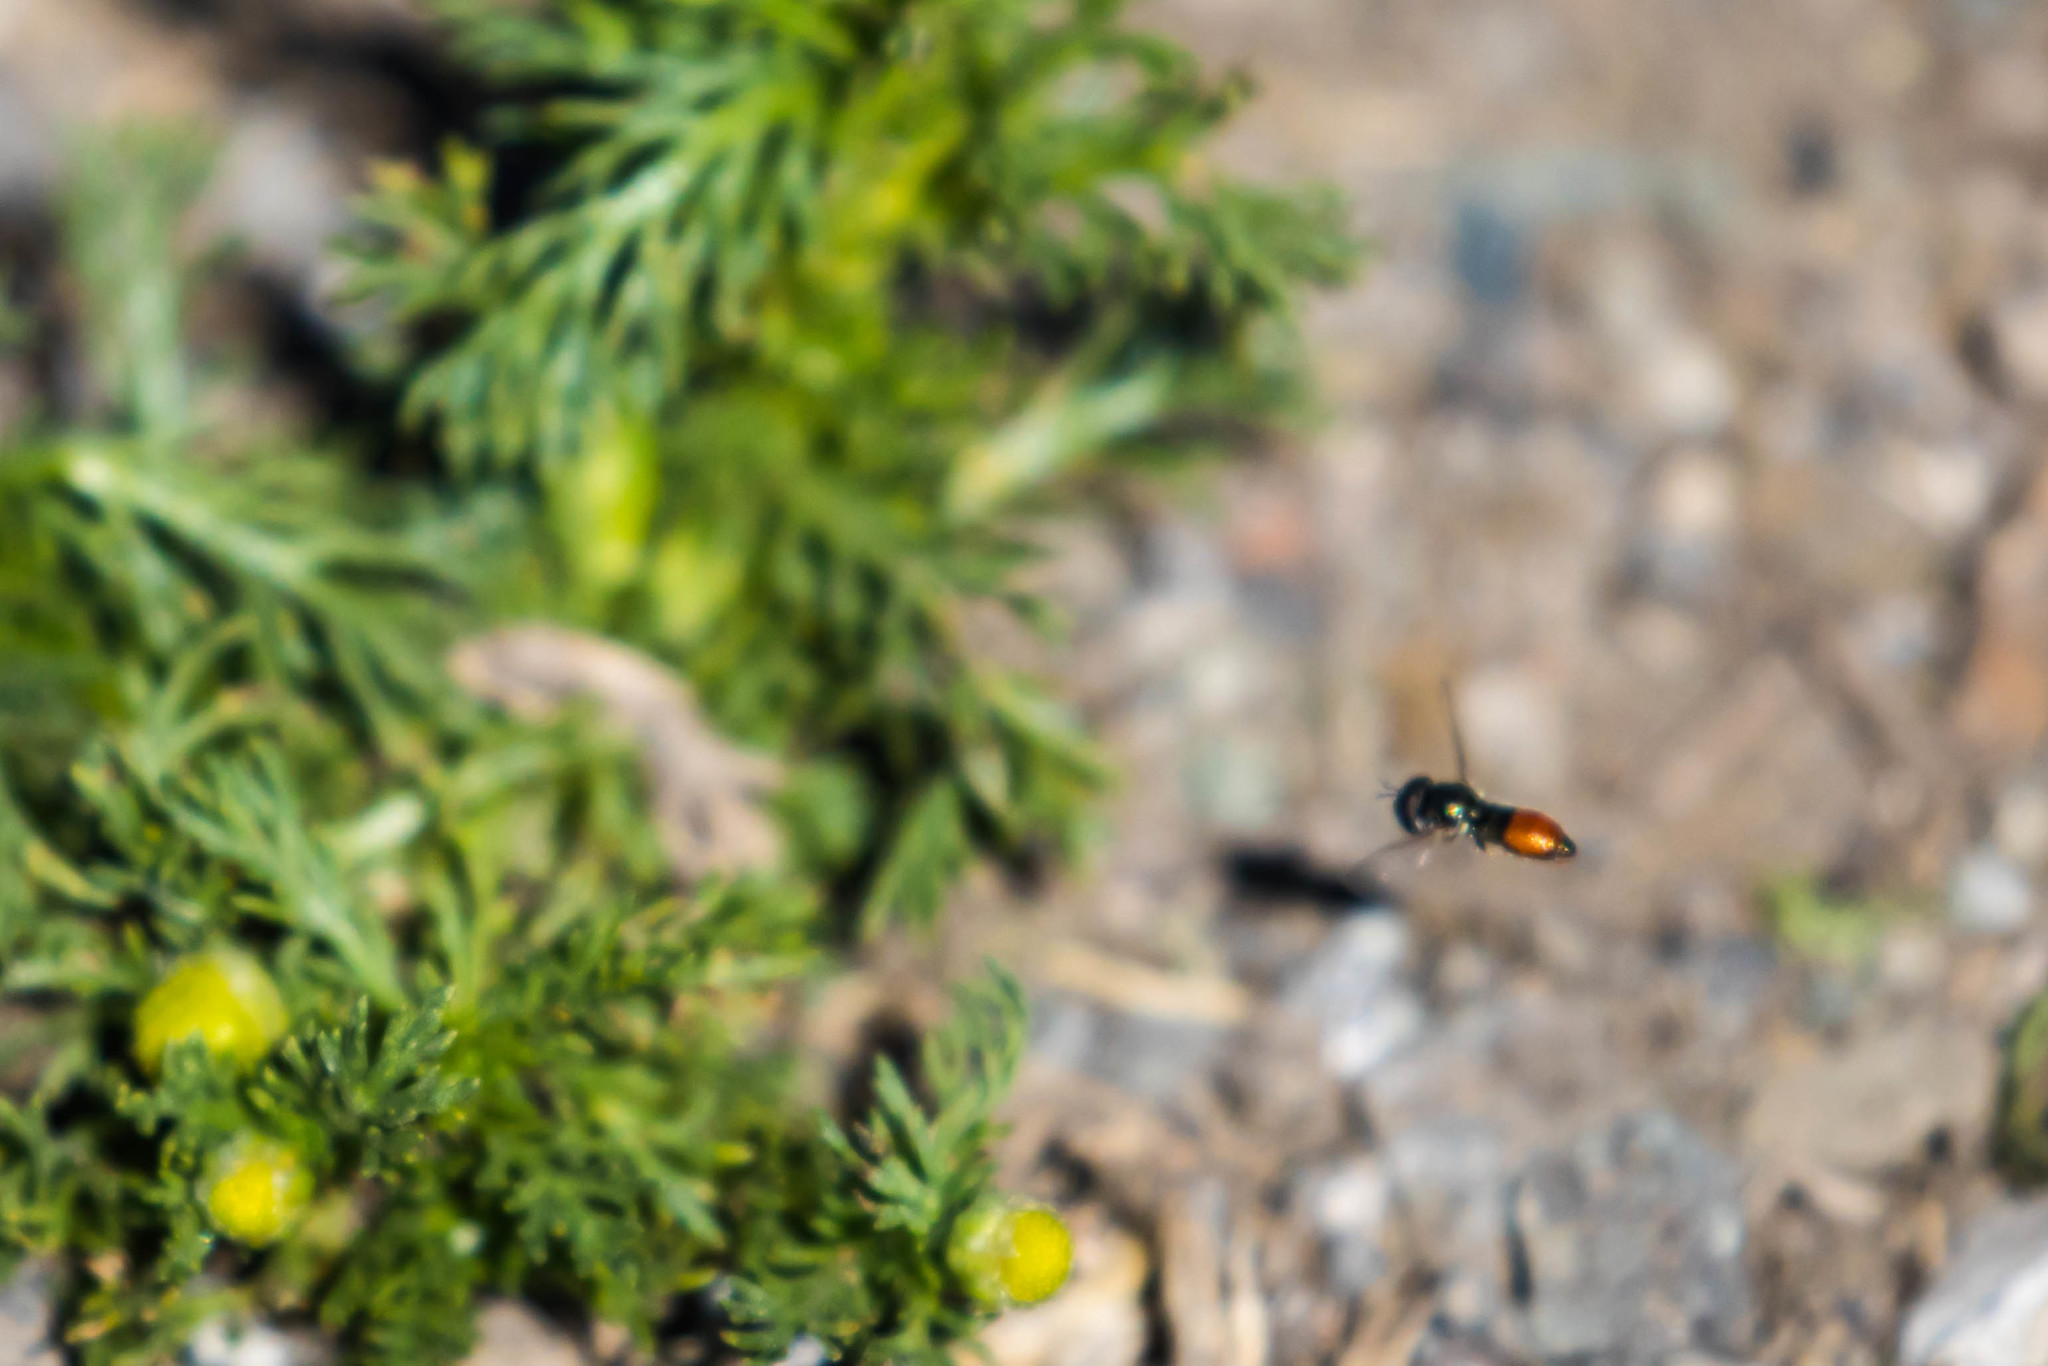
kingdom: Animalia
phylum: Arthropoda
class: Insecta
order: Diptera
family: Syrphidae
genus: Paragus
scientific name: Paragus haemorrhous
